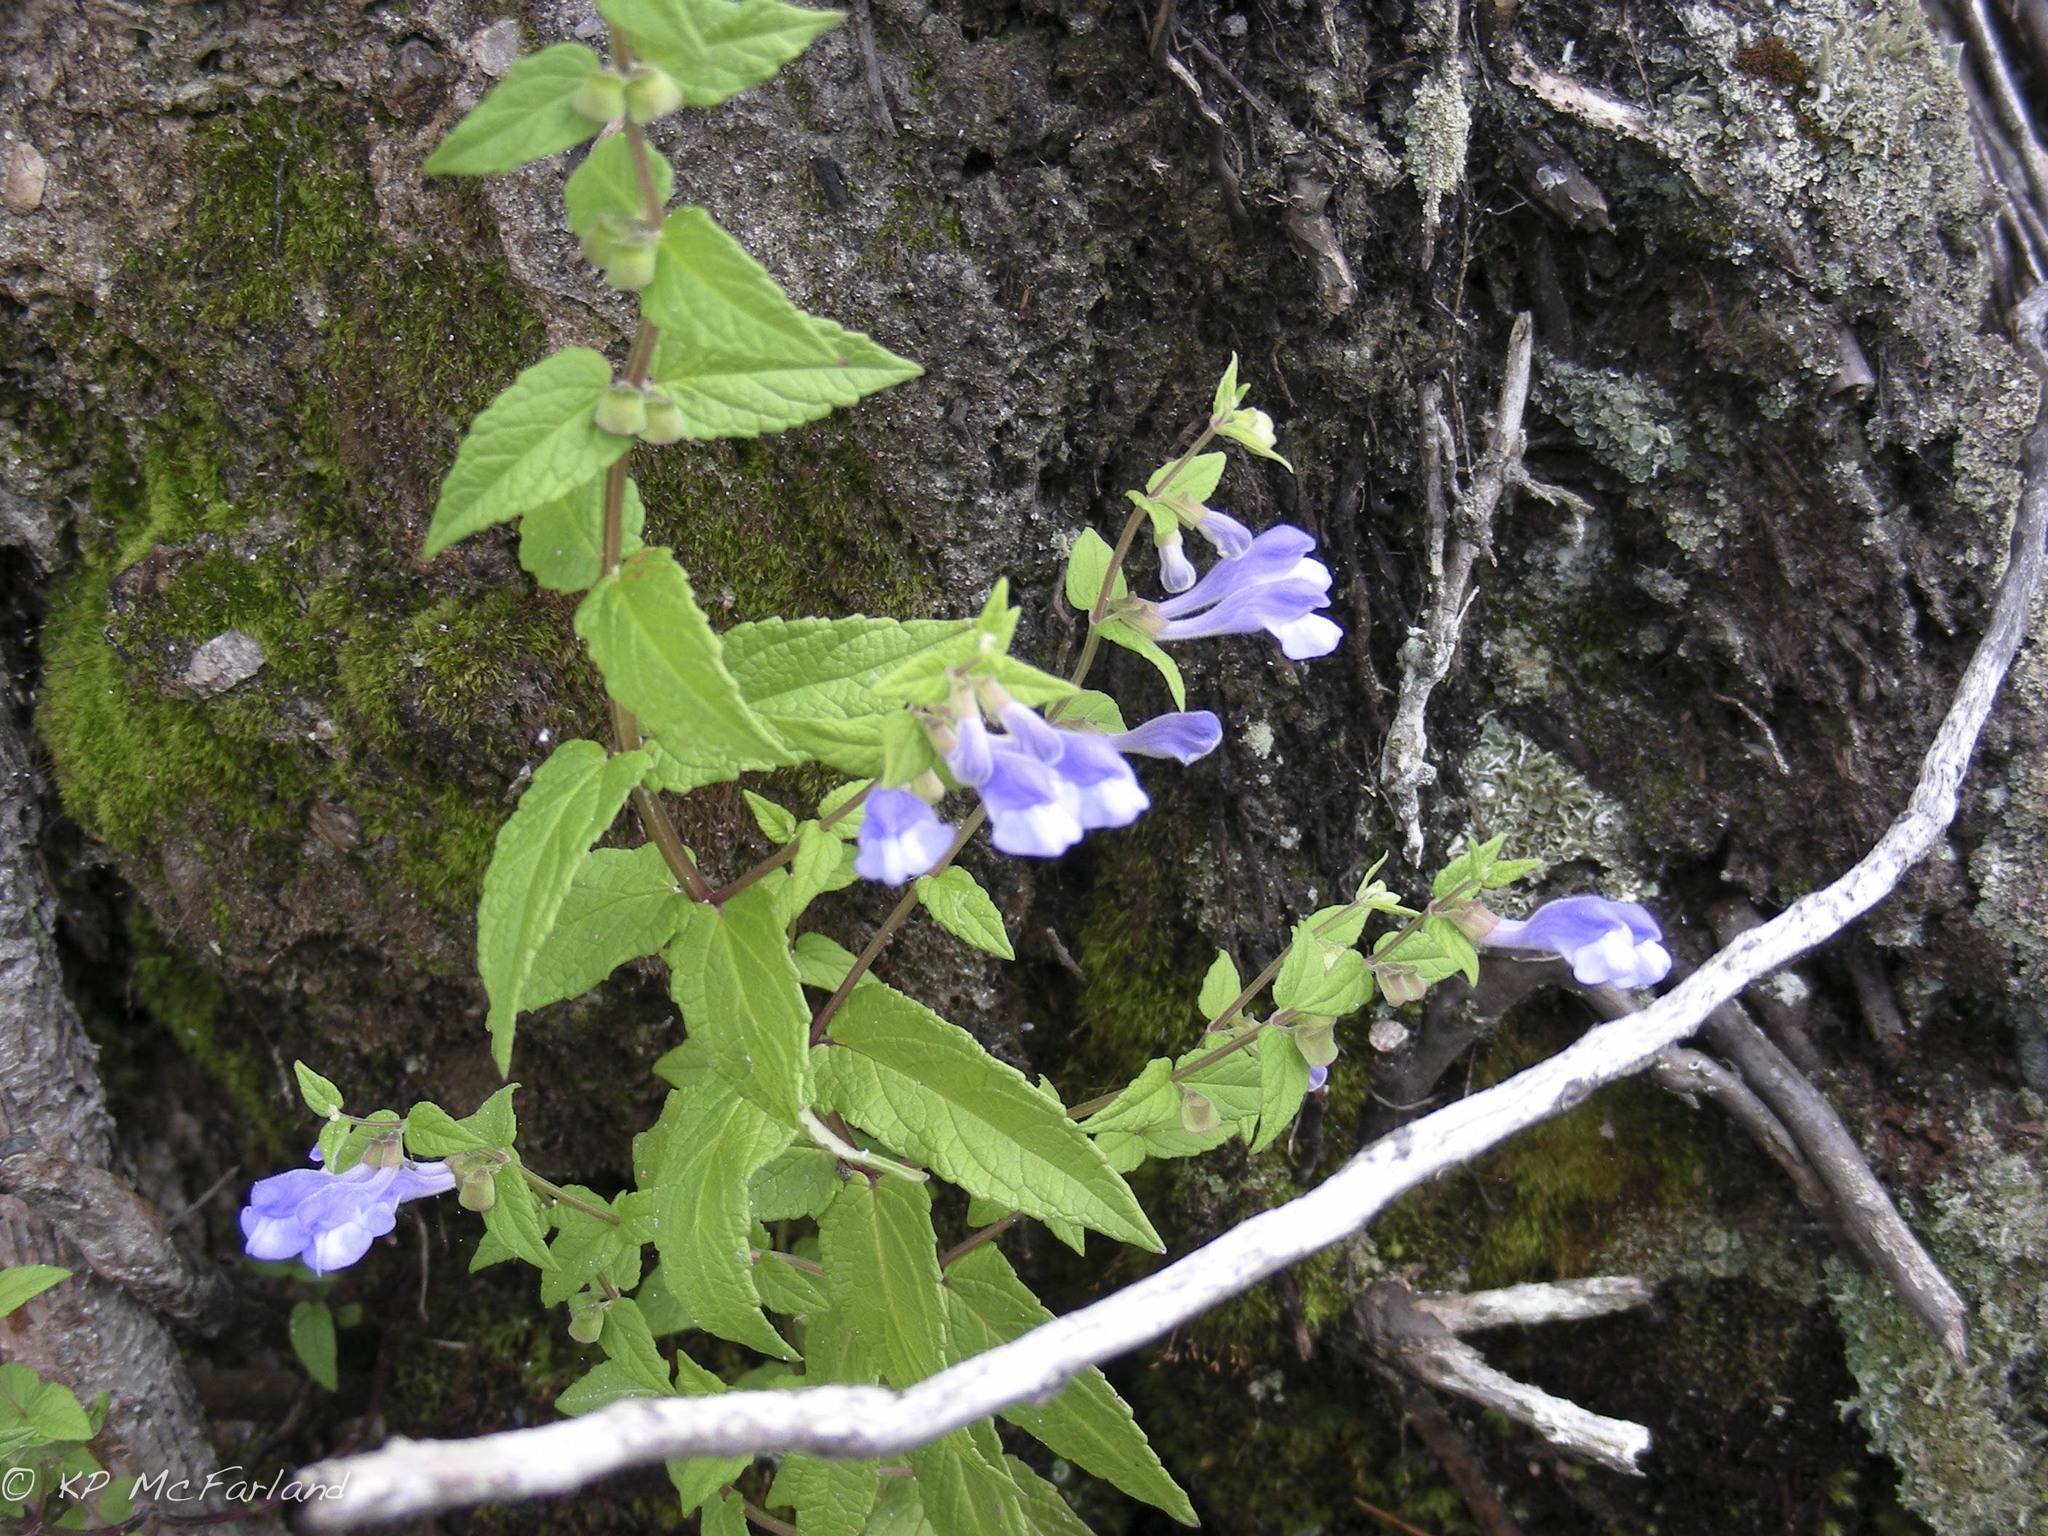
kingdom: Plantae
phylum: Tracheophyta
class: Magnoliopsida
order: Lamiales
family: Lamiaceae
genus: Scutellaria
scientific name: Scutellaria galericulata
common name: Skullcap
